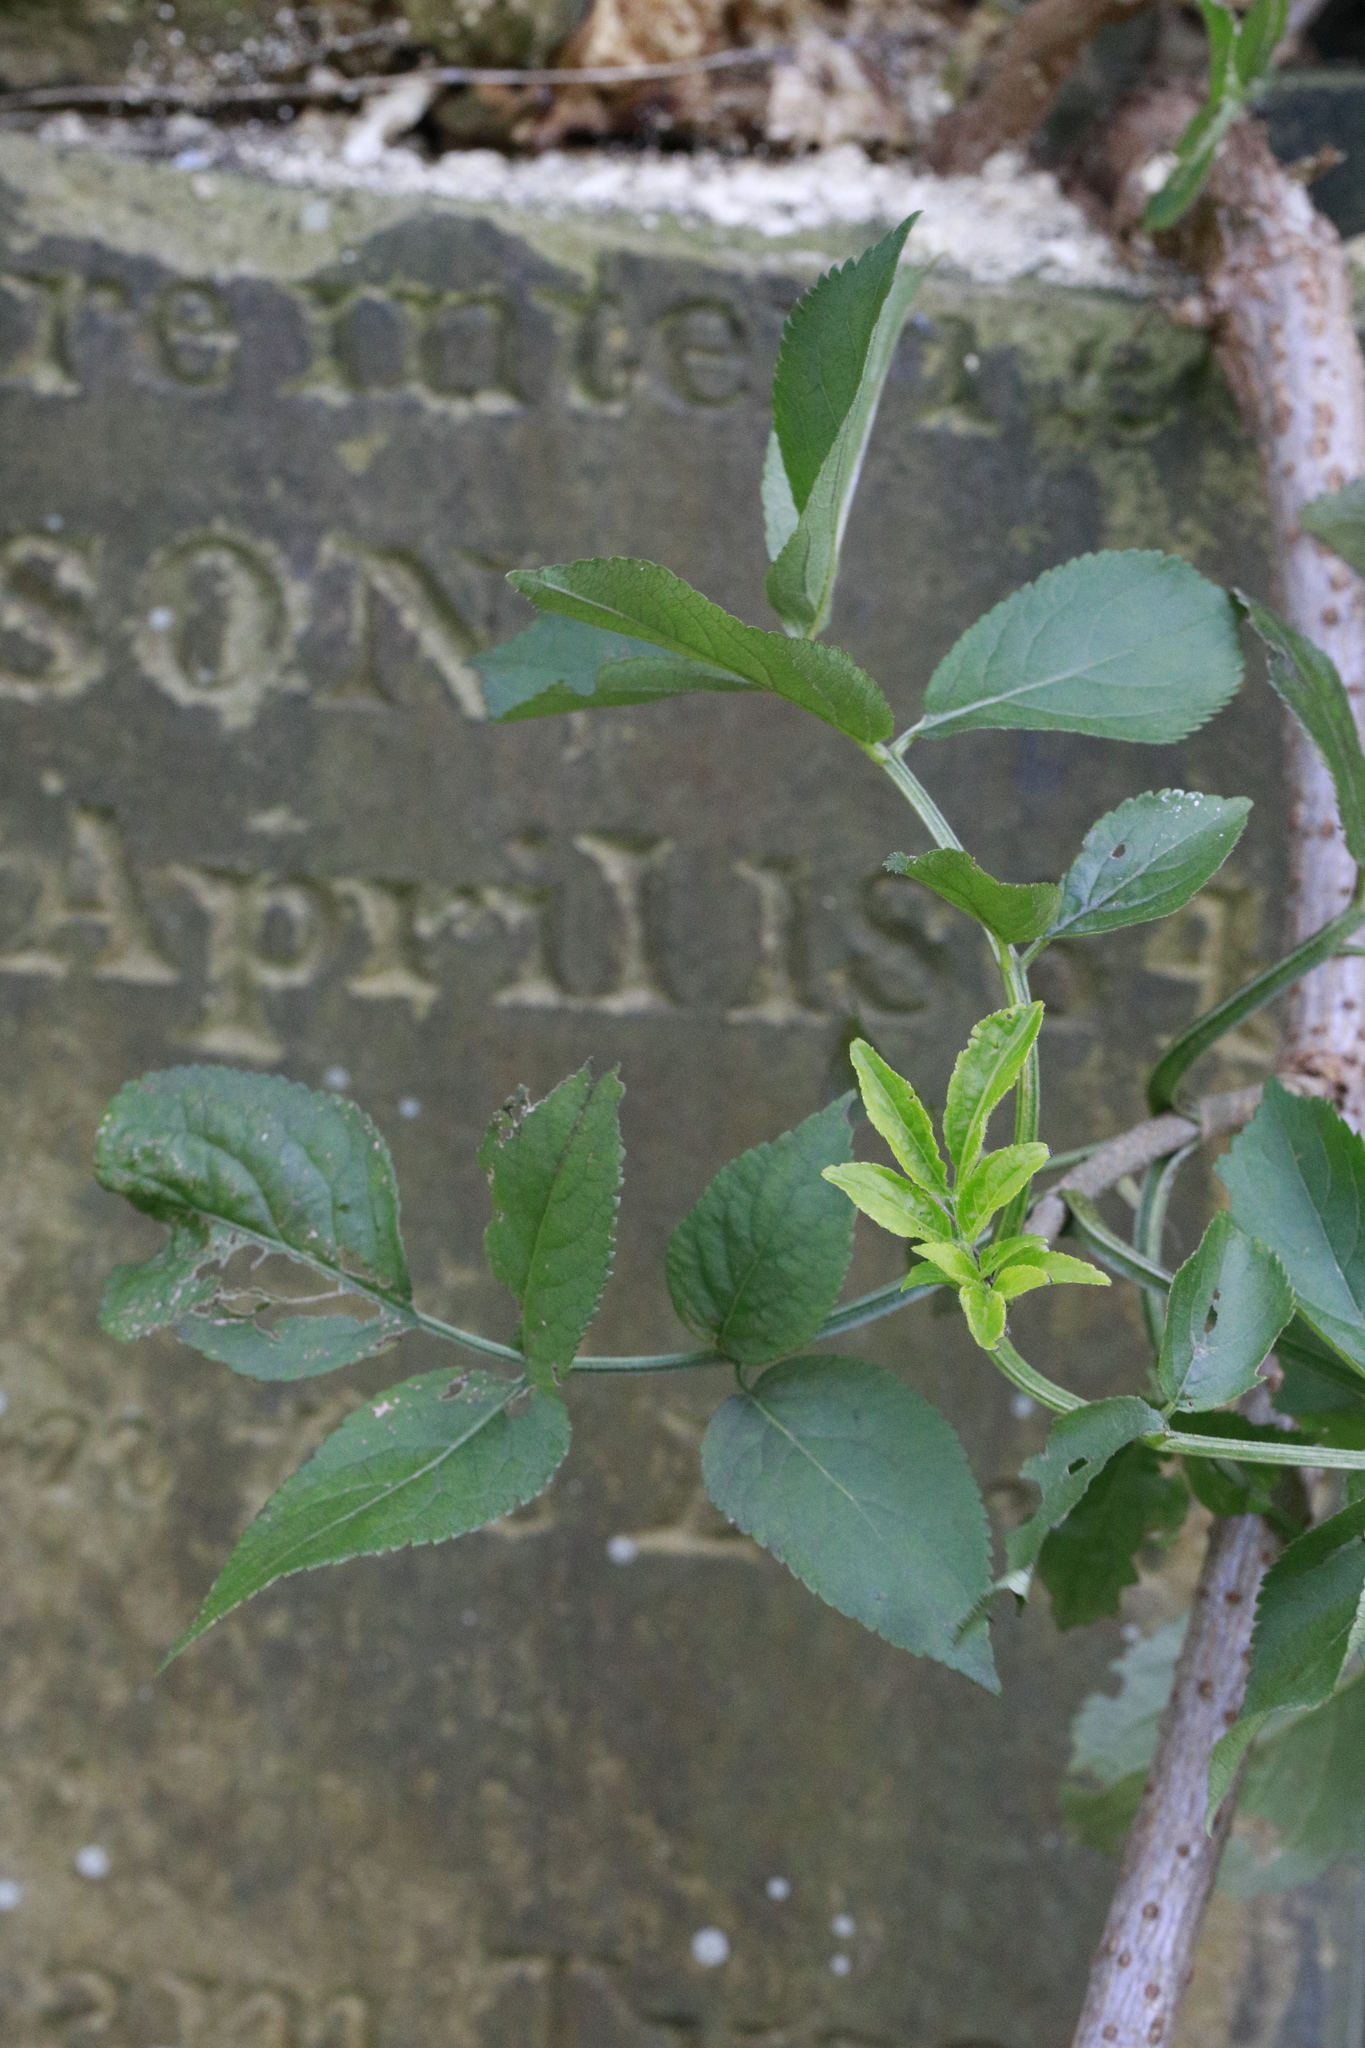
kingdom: Plantae
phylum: Tracheophyta
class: Magnoliopsida
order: Dipsacales
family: Viburnaceae
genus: Sambucus
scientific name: Sambucus nigra
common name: Elder
